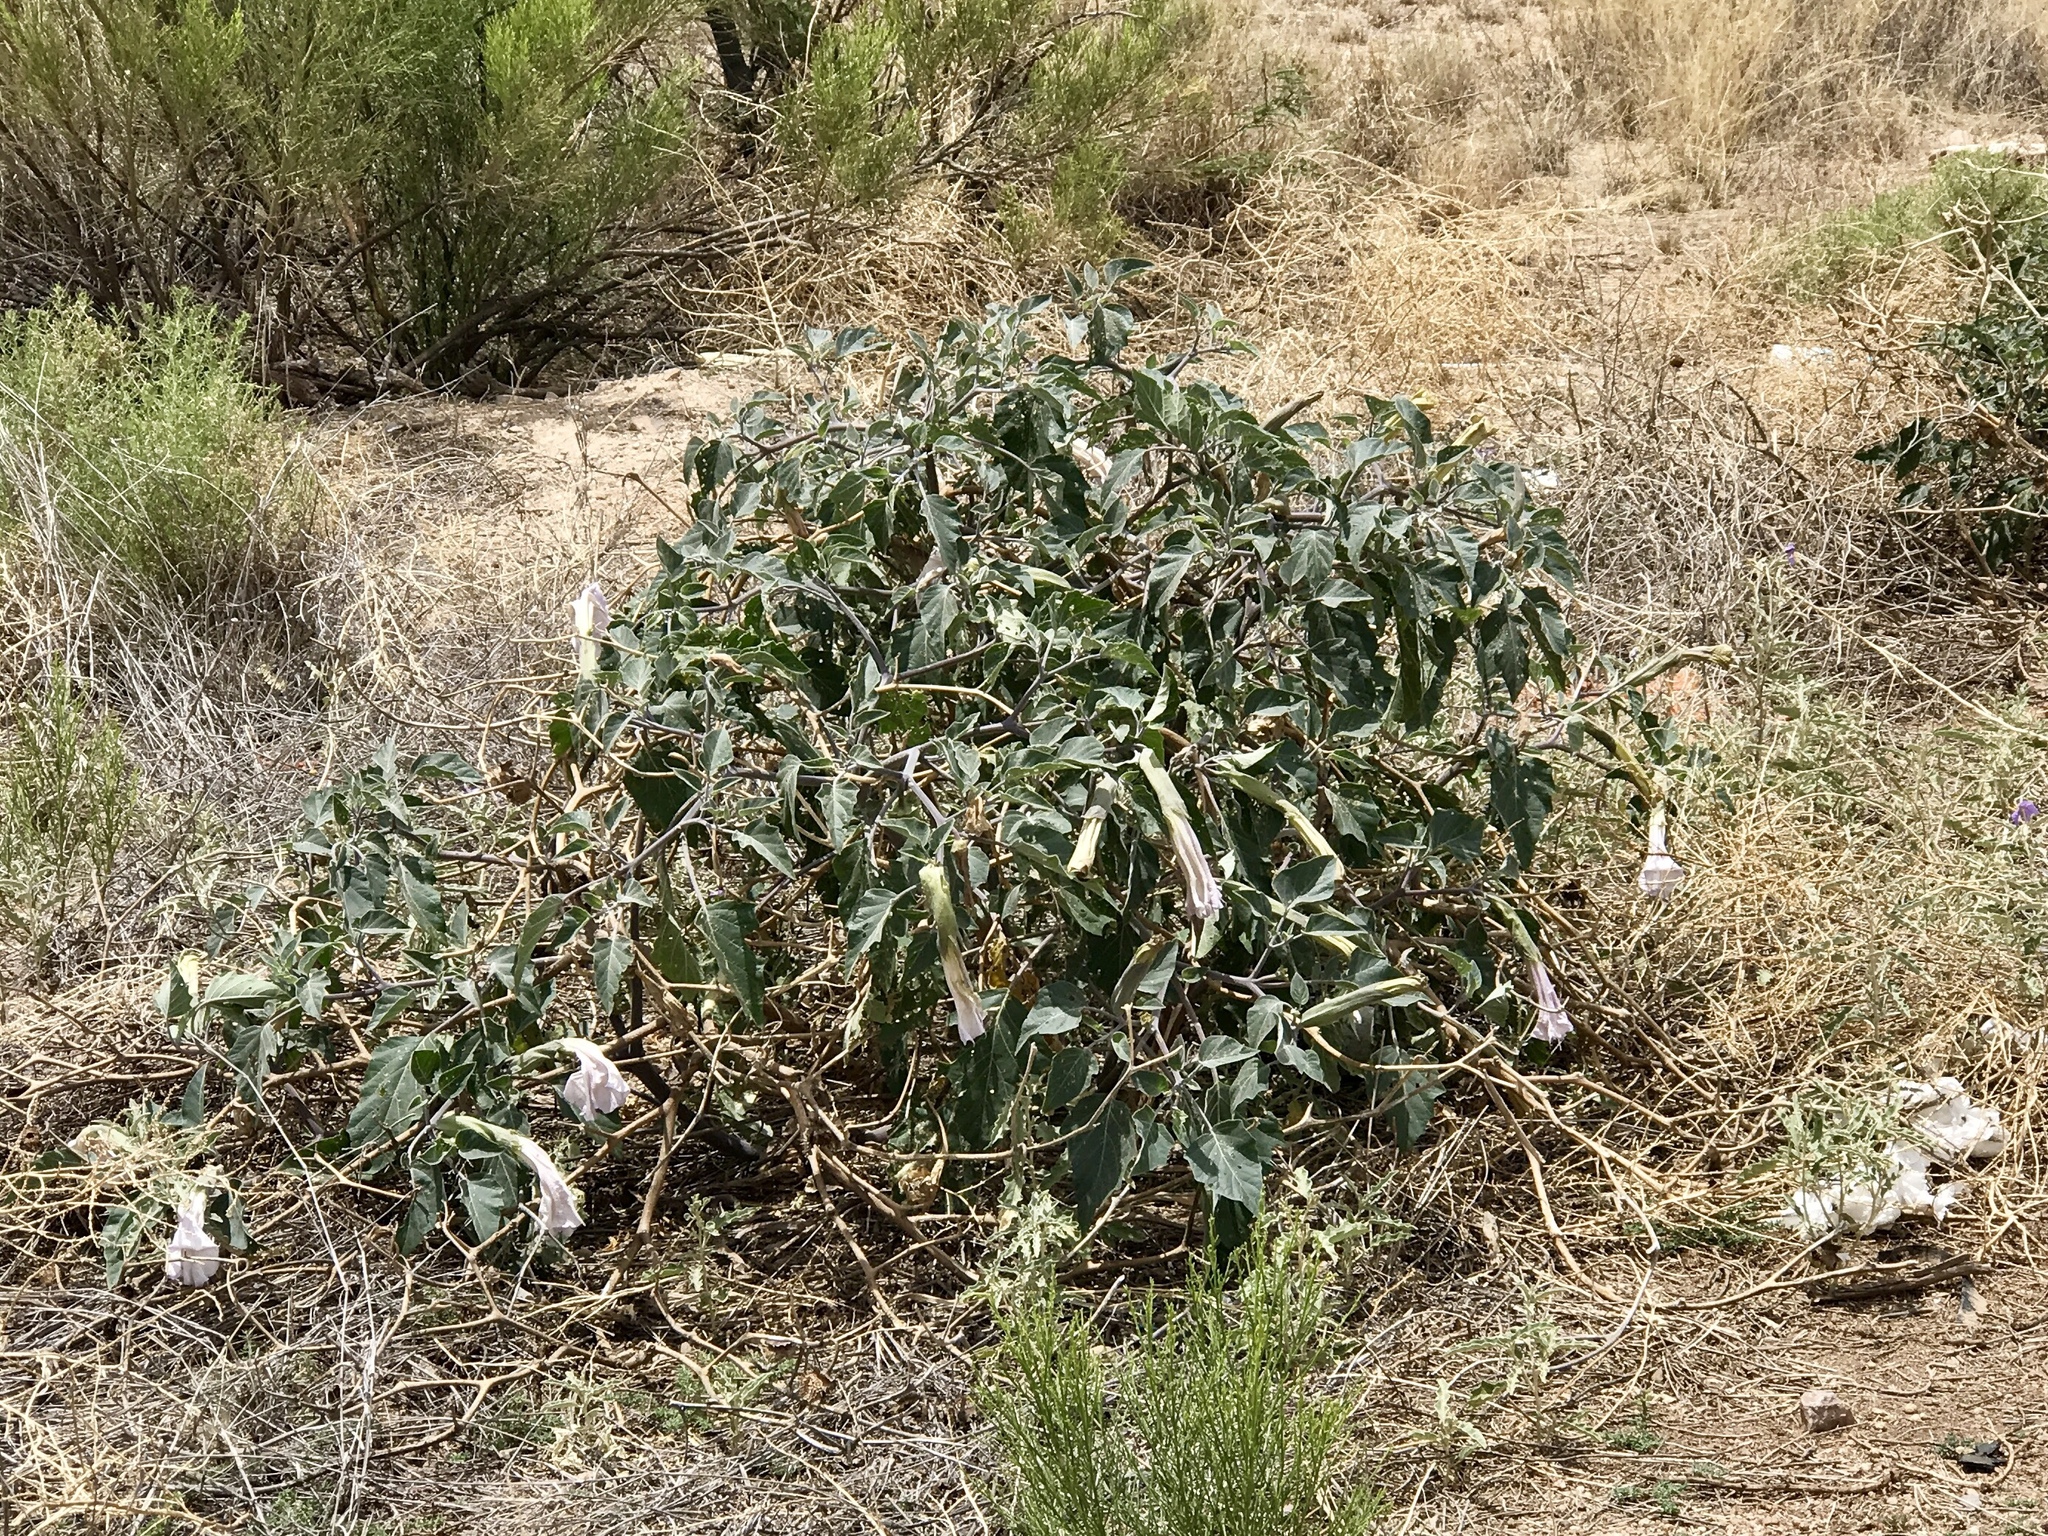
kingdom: Plantae
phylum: Tracheophyta
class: Magnoliopsida
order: Solanales
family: Solanaceae
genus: Datura
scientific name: Datura wrightii
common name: Sacred thorn-apple
